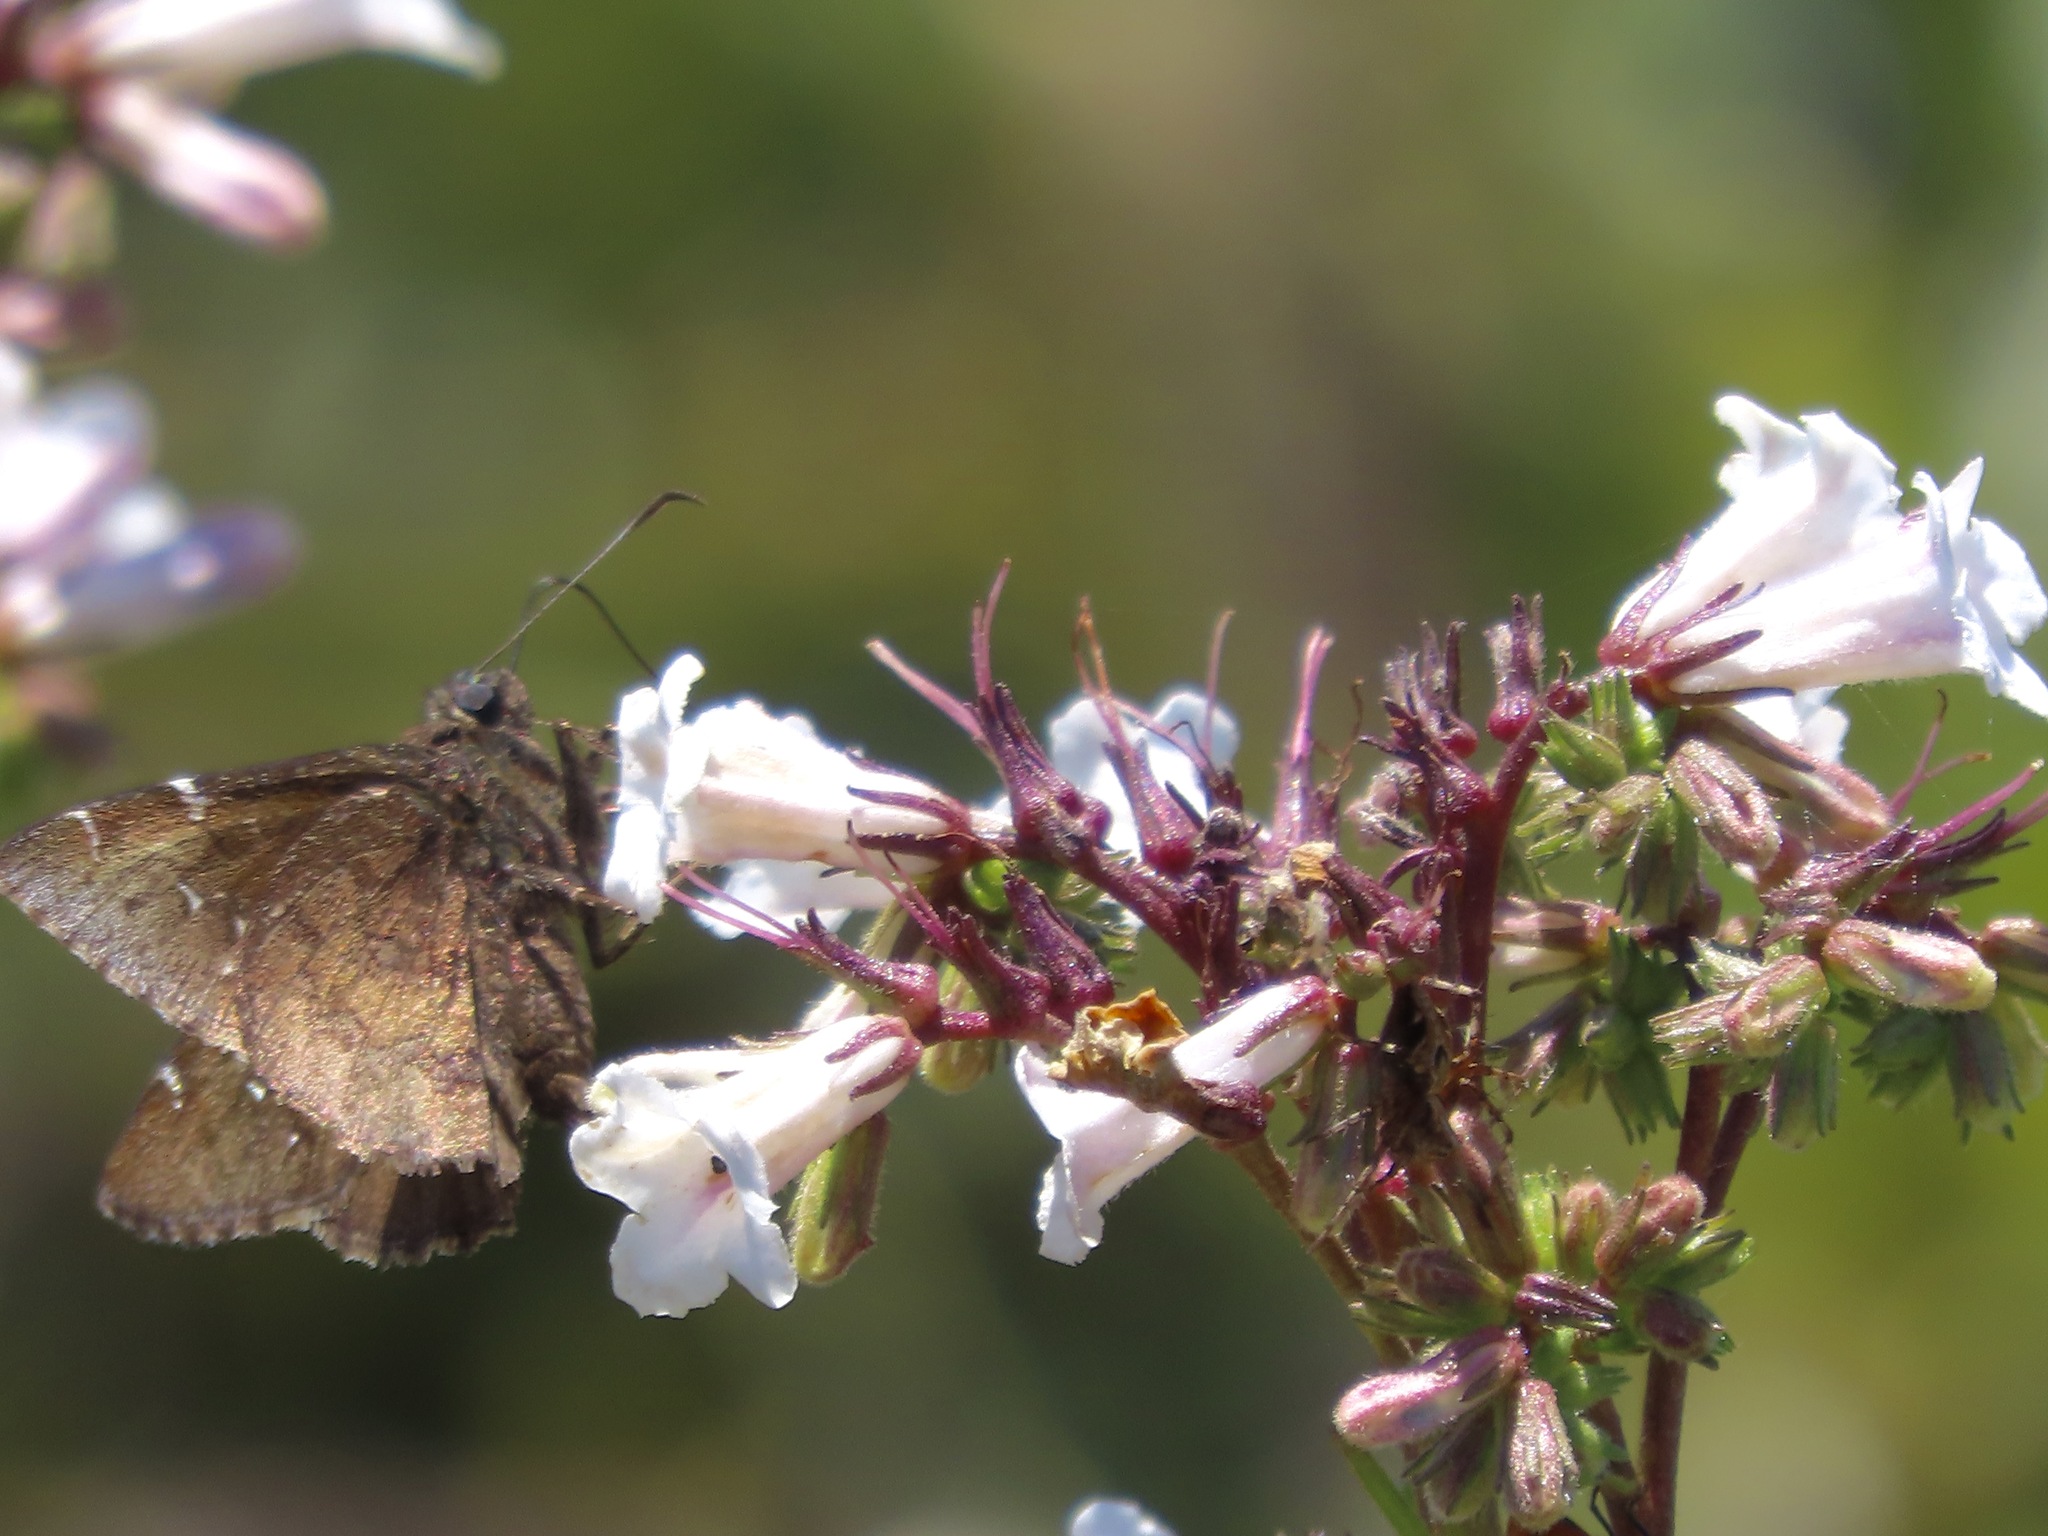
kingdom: Animalia
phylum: Arthropoda
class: Insecta
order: Lepidoptera
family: Hesperiidae
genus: Thorybes
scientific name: Thorybes pylades
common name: Northern cloudywing
